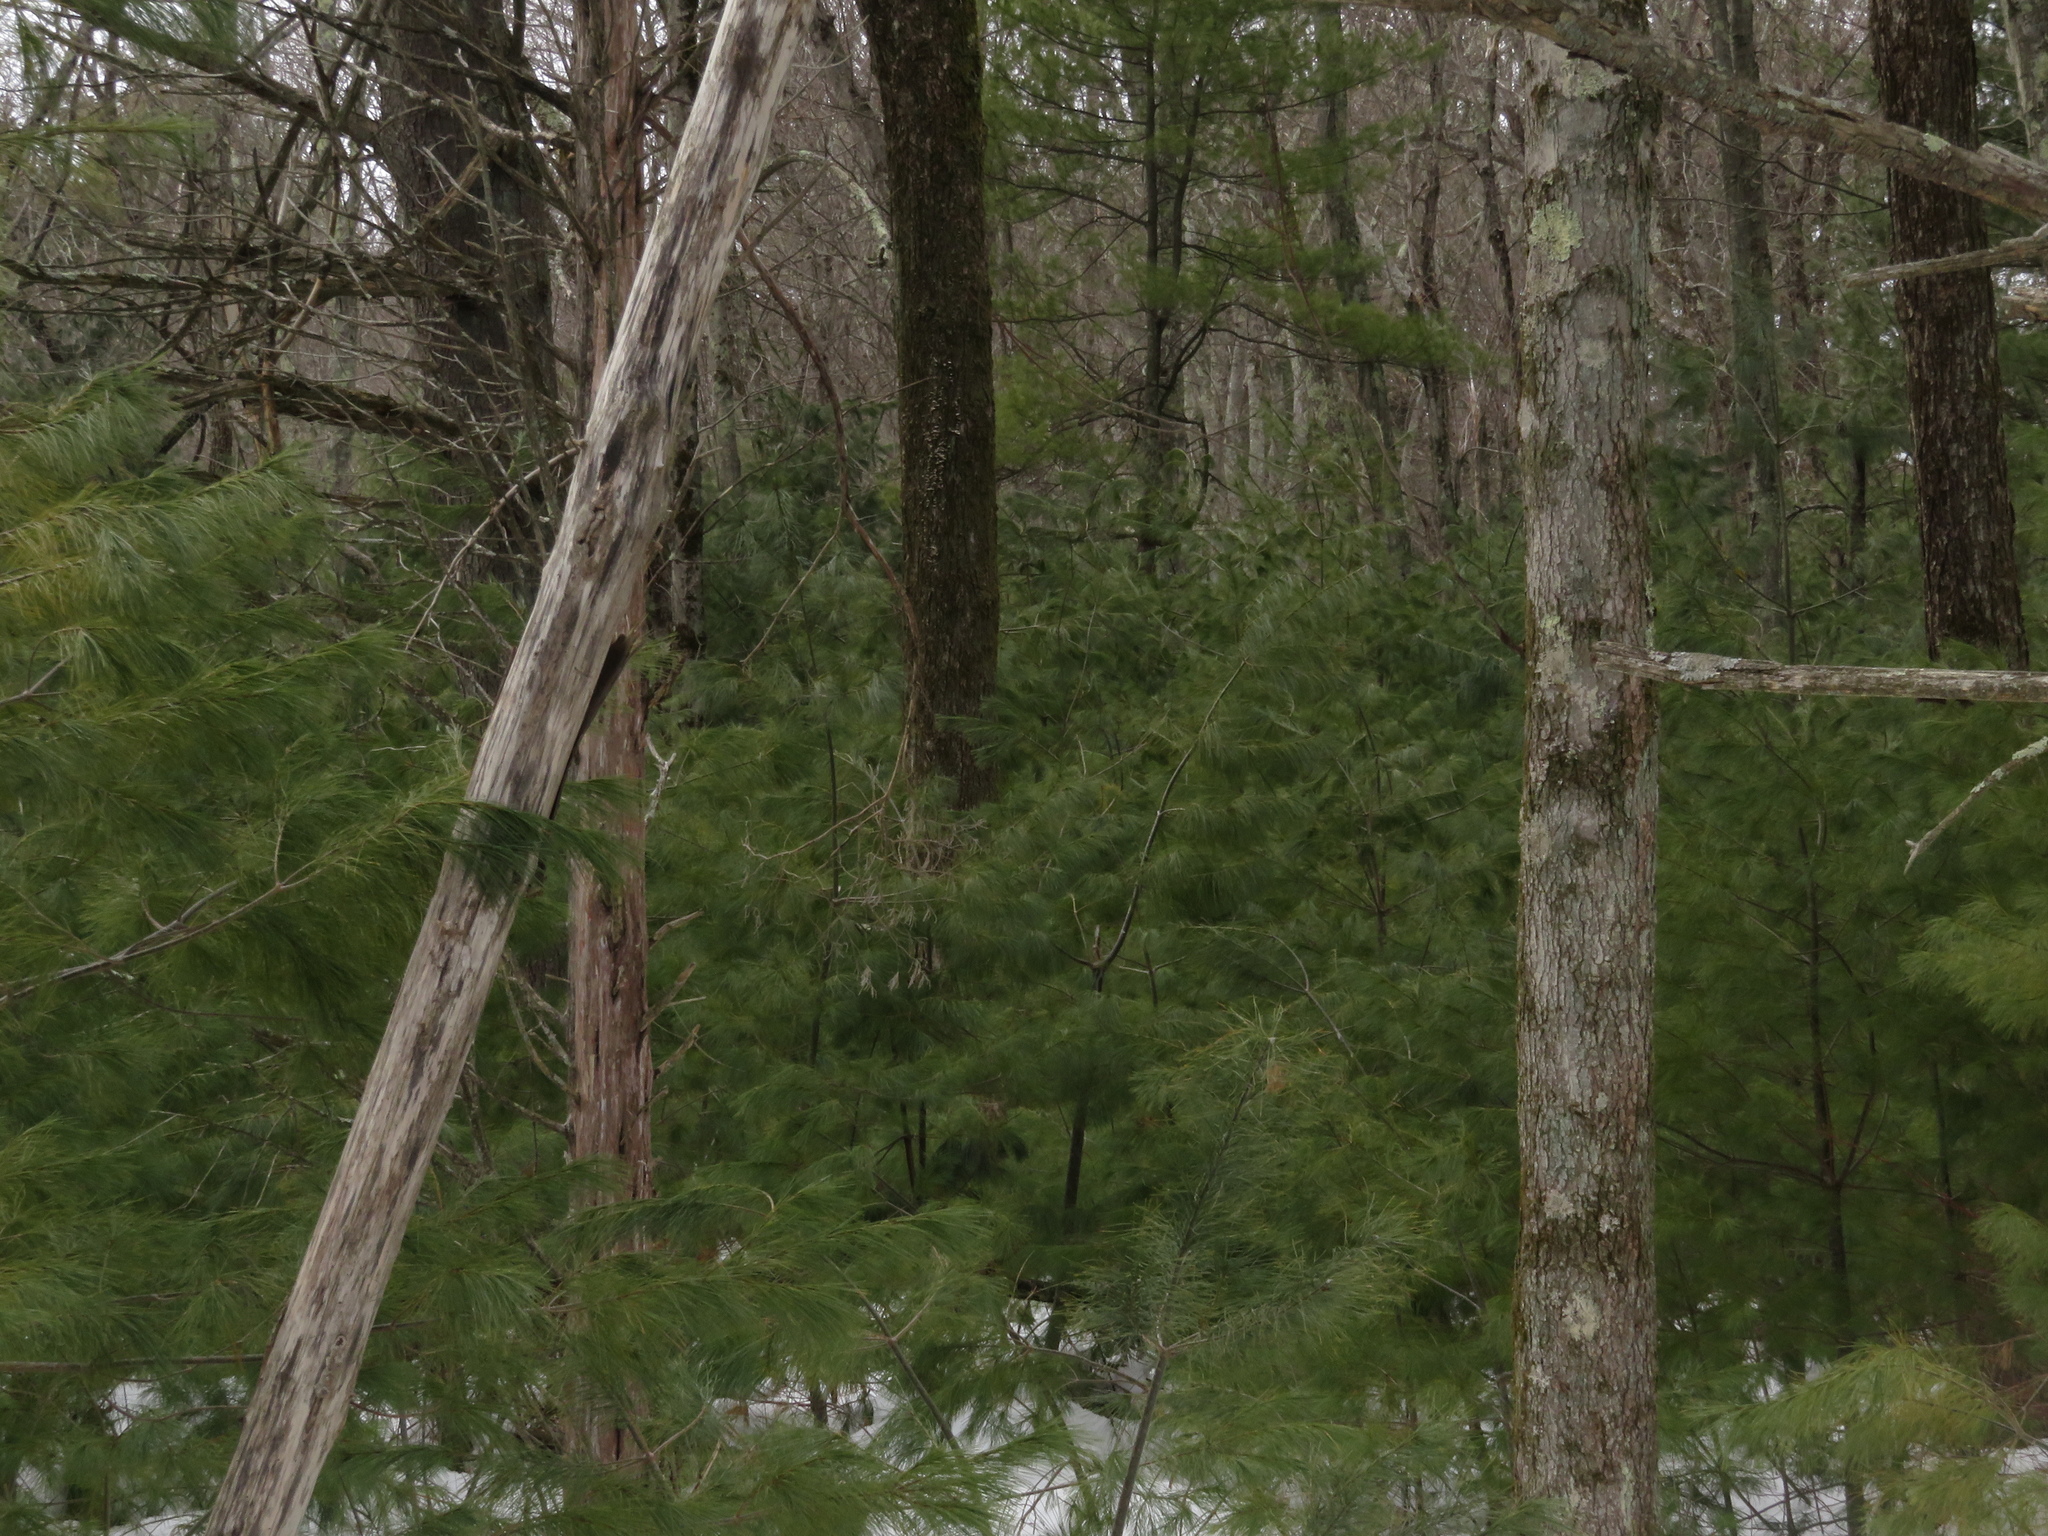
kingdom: Plantae
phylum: Tracheophyta
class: Pinopsida
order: Pinales
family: Pinaceae
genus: Pinus
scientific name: Pinus strobus
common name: Weymouth pine
